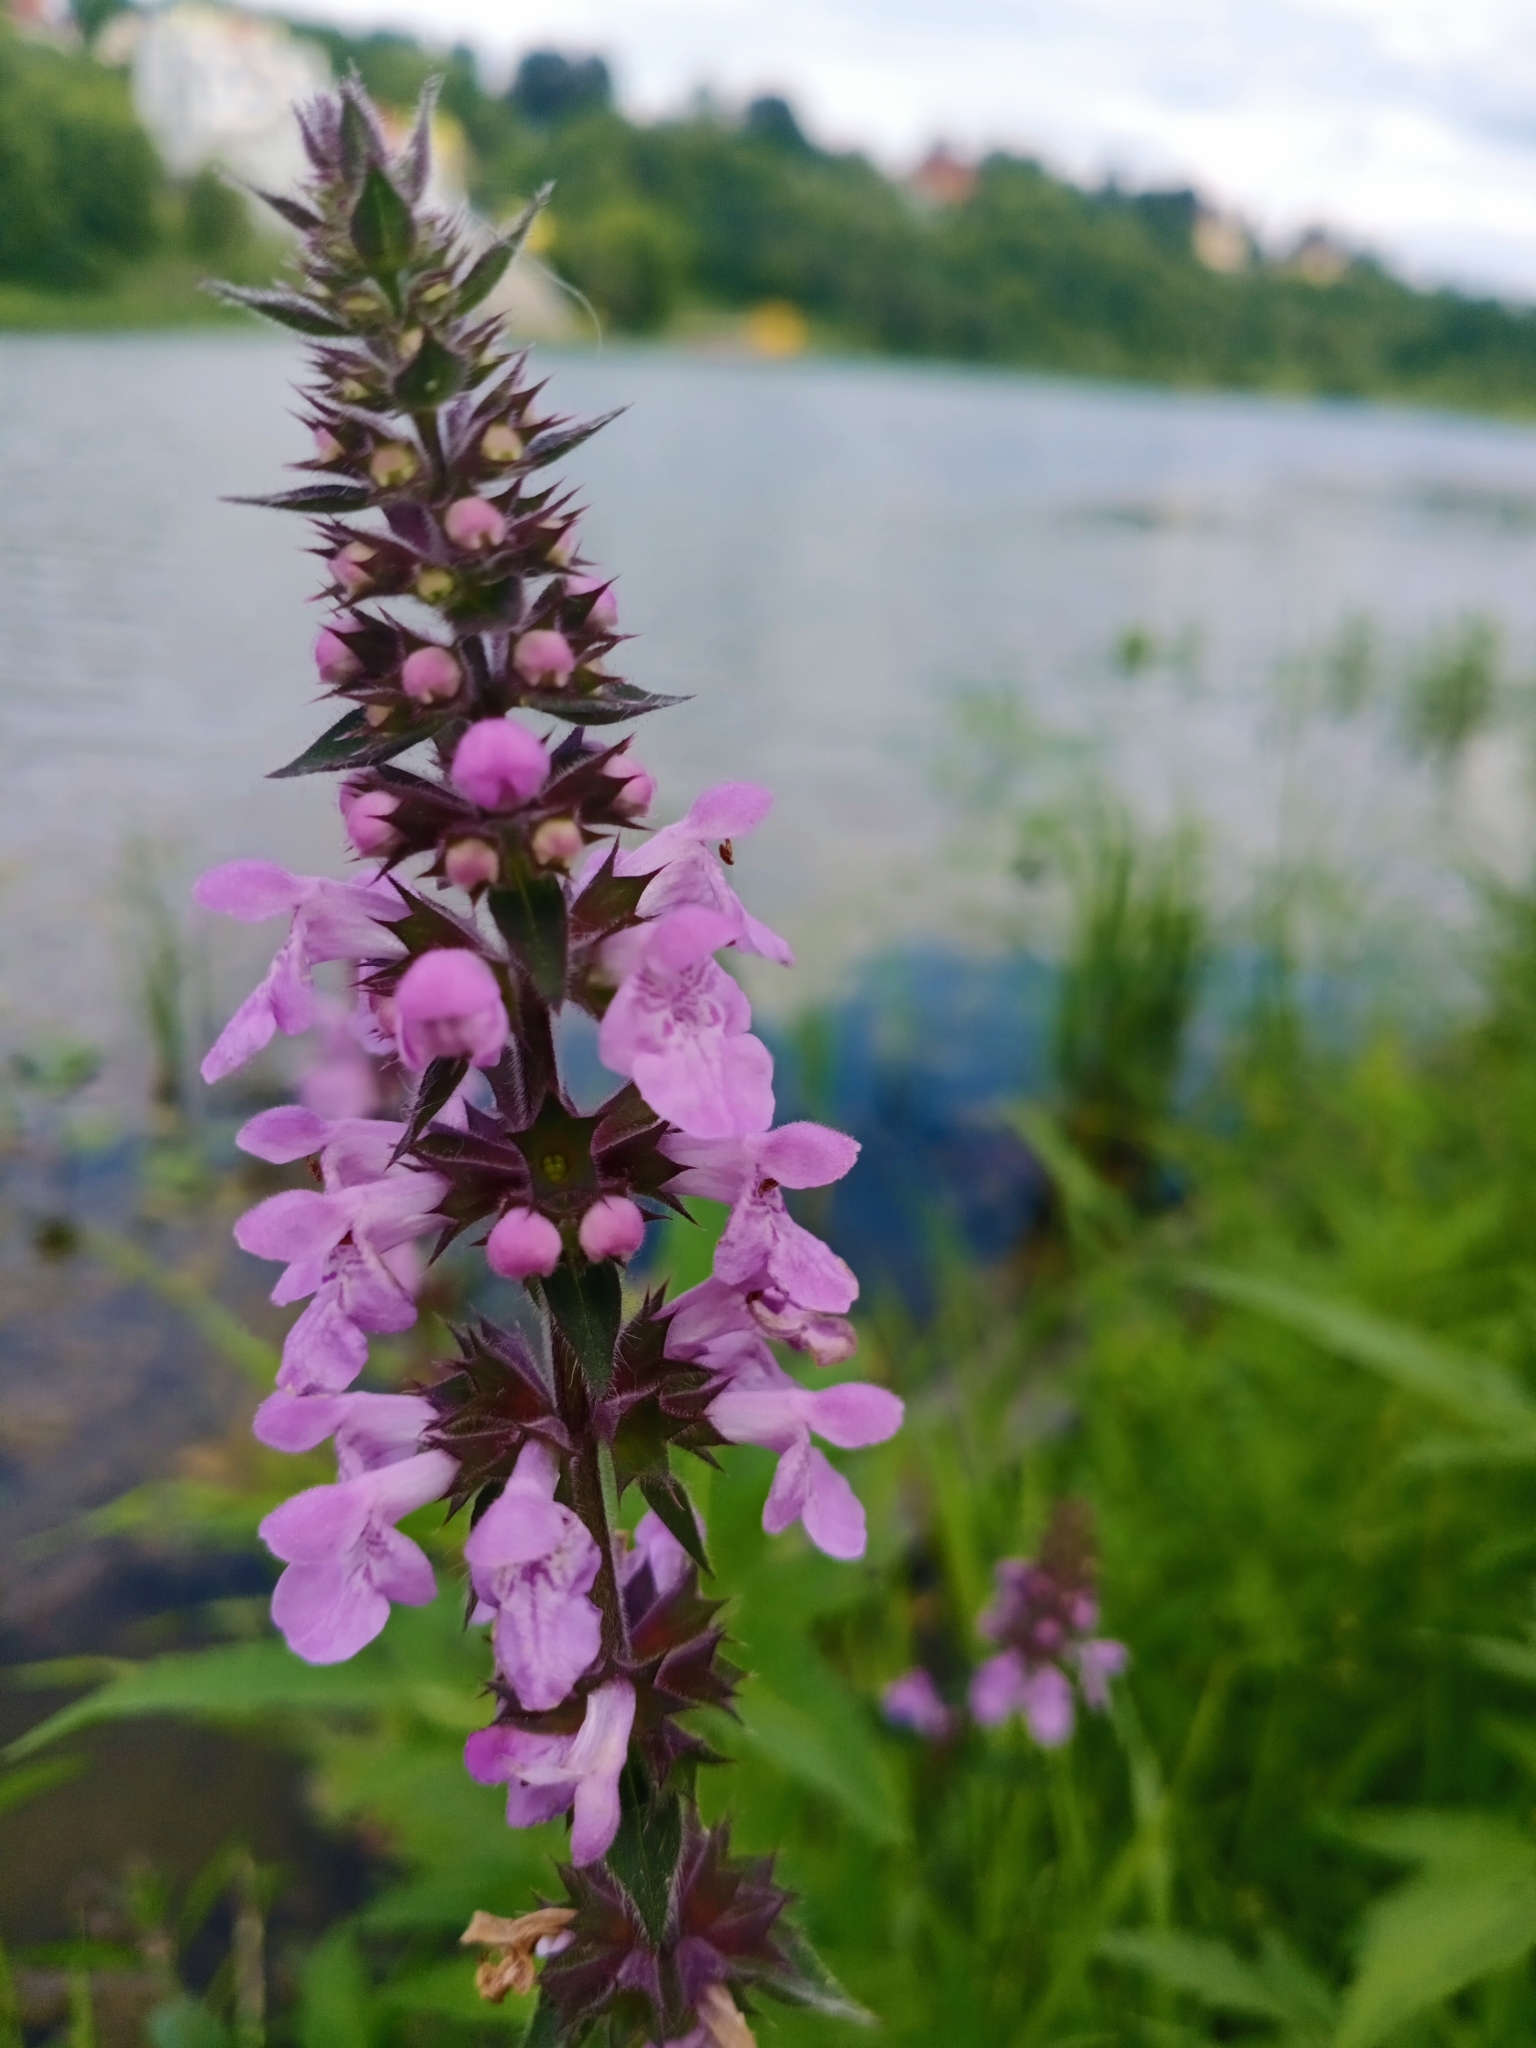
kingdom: Plantae
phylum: Tracheophyta
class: Magnoliopsida
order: Lamiales
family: Lamiaceae
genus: Stachys
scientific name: Stachys palustris
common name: Marsh woundwort
